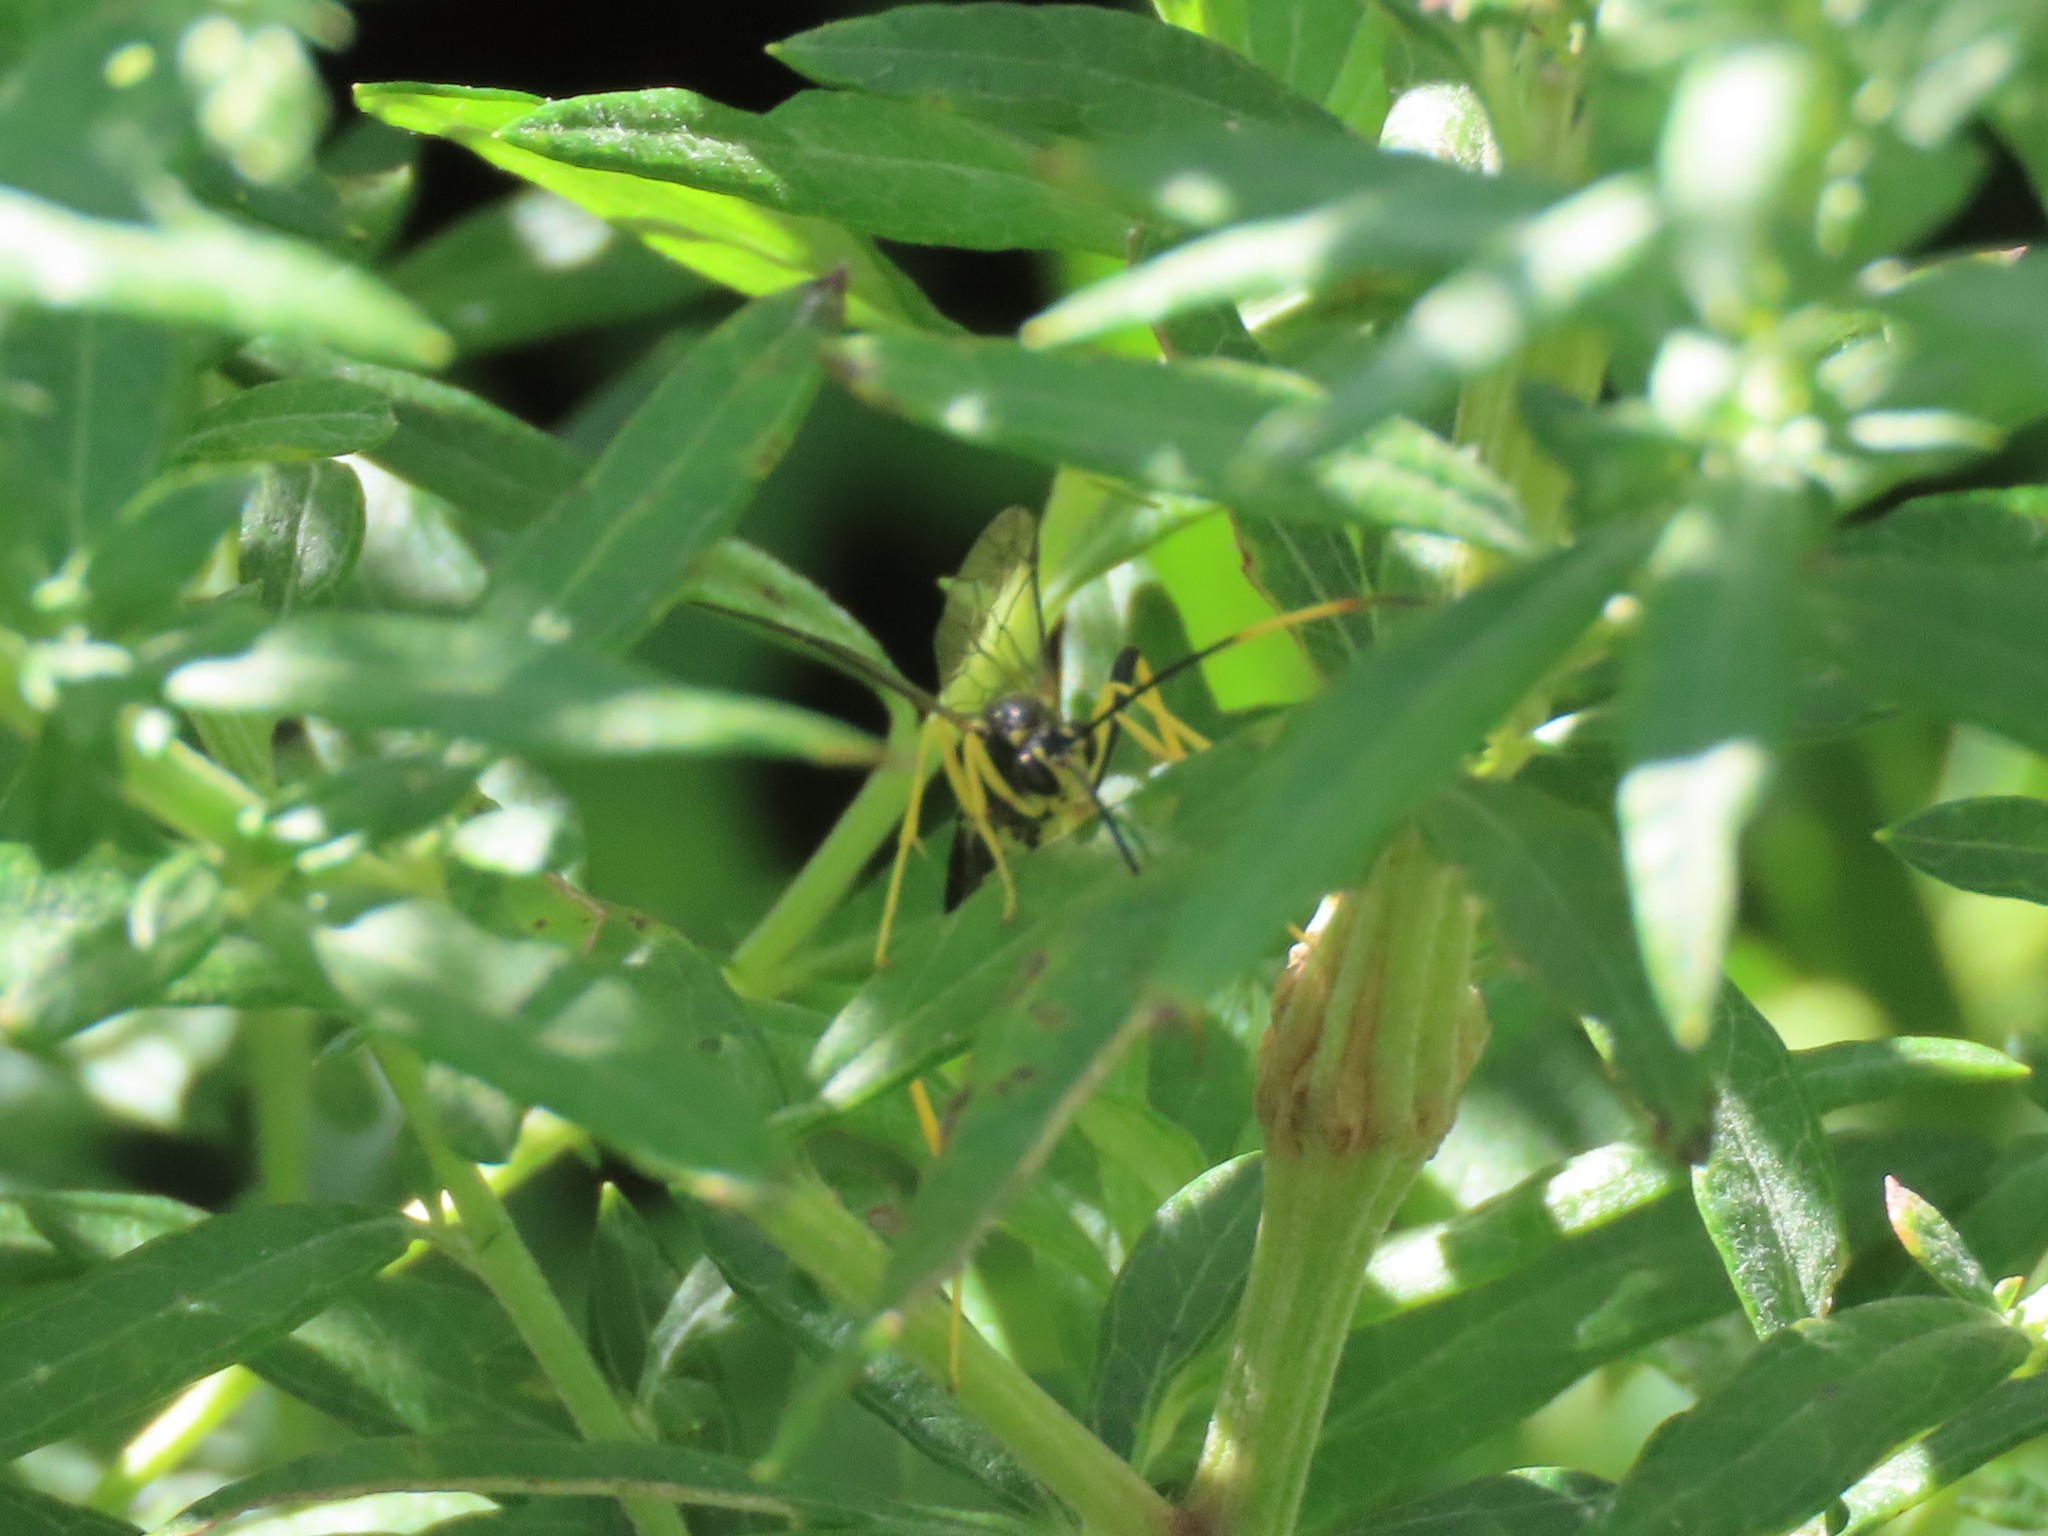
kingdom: Animalia
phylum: Arthropoda
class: Insecta
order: Hymenoptera
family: Ichneumonidae
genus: Acroricnus
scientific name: Acroricnus stylator
